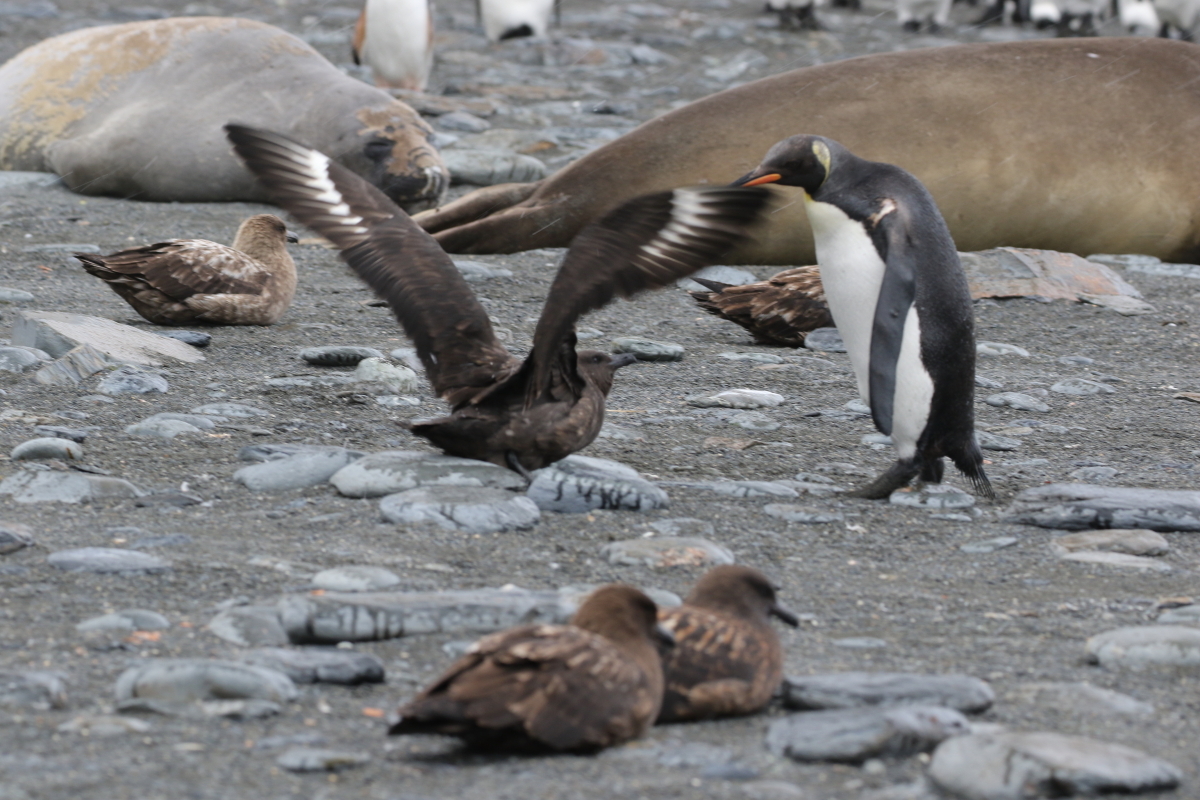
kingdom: Animalia
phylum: Chordata
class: Aves
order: Charadriiformes
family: Stercorariidae
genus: Stercorarius
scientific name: Stercorarius antarcticus
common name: Brown skua
